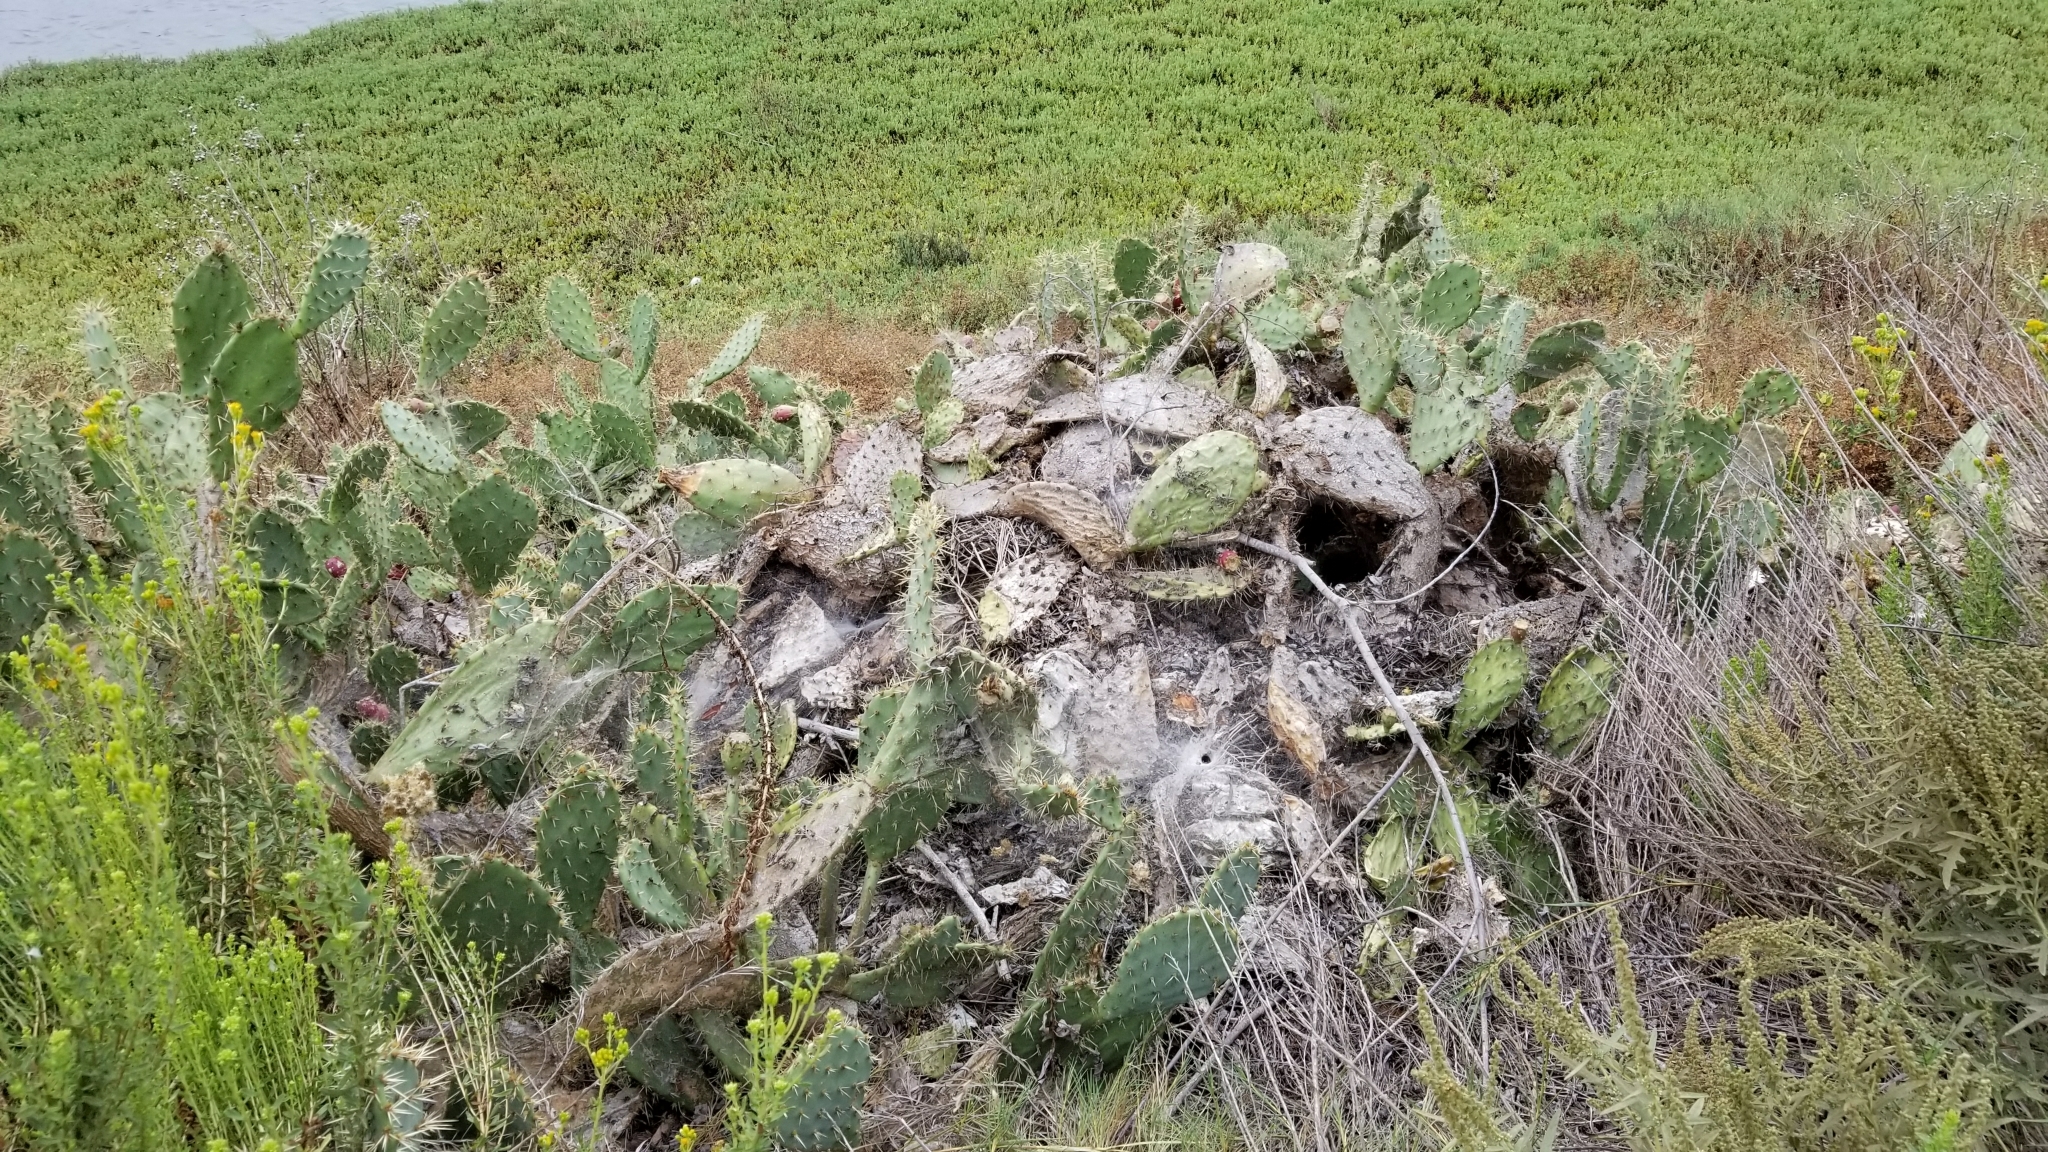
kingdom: Plantae
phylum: Tracheophyta
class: Magnoliopsida
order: Caryophyllales
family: Cactaceae
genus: Opuntia
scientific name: Opuntia littoralis
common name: Coastal prickly-pear
